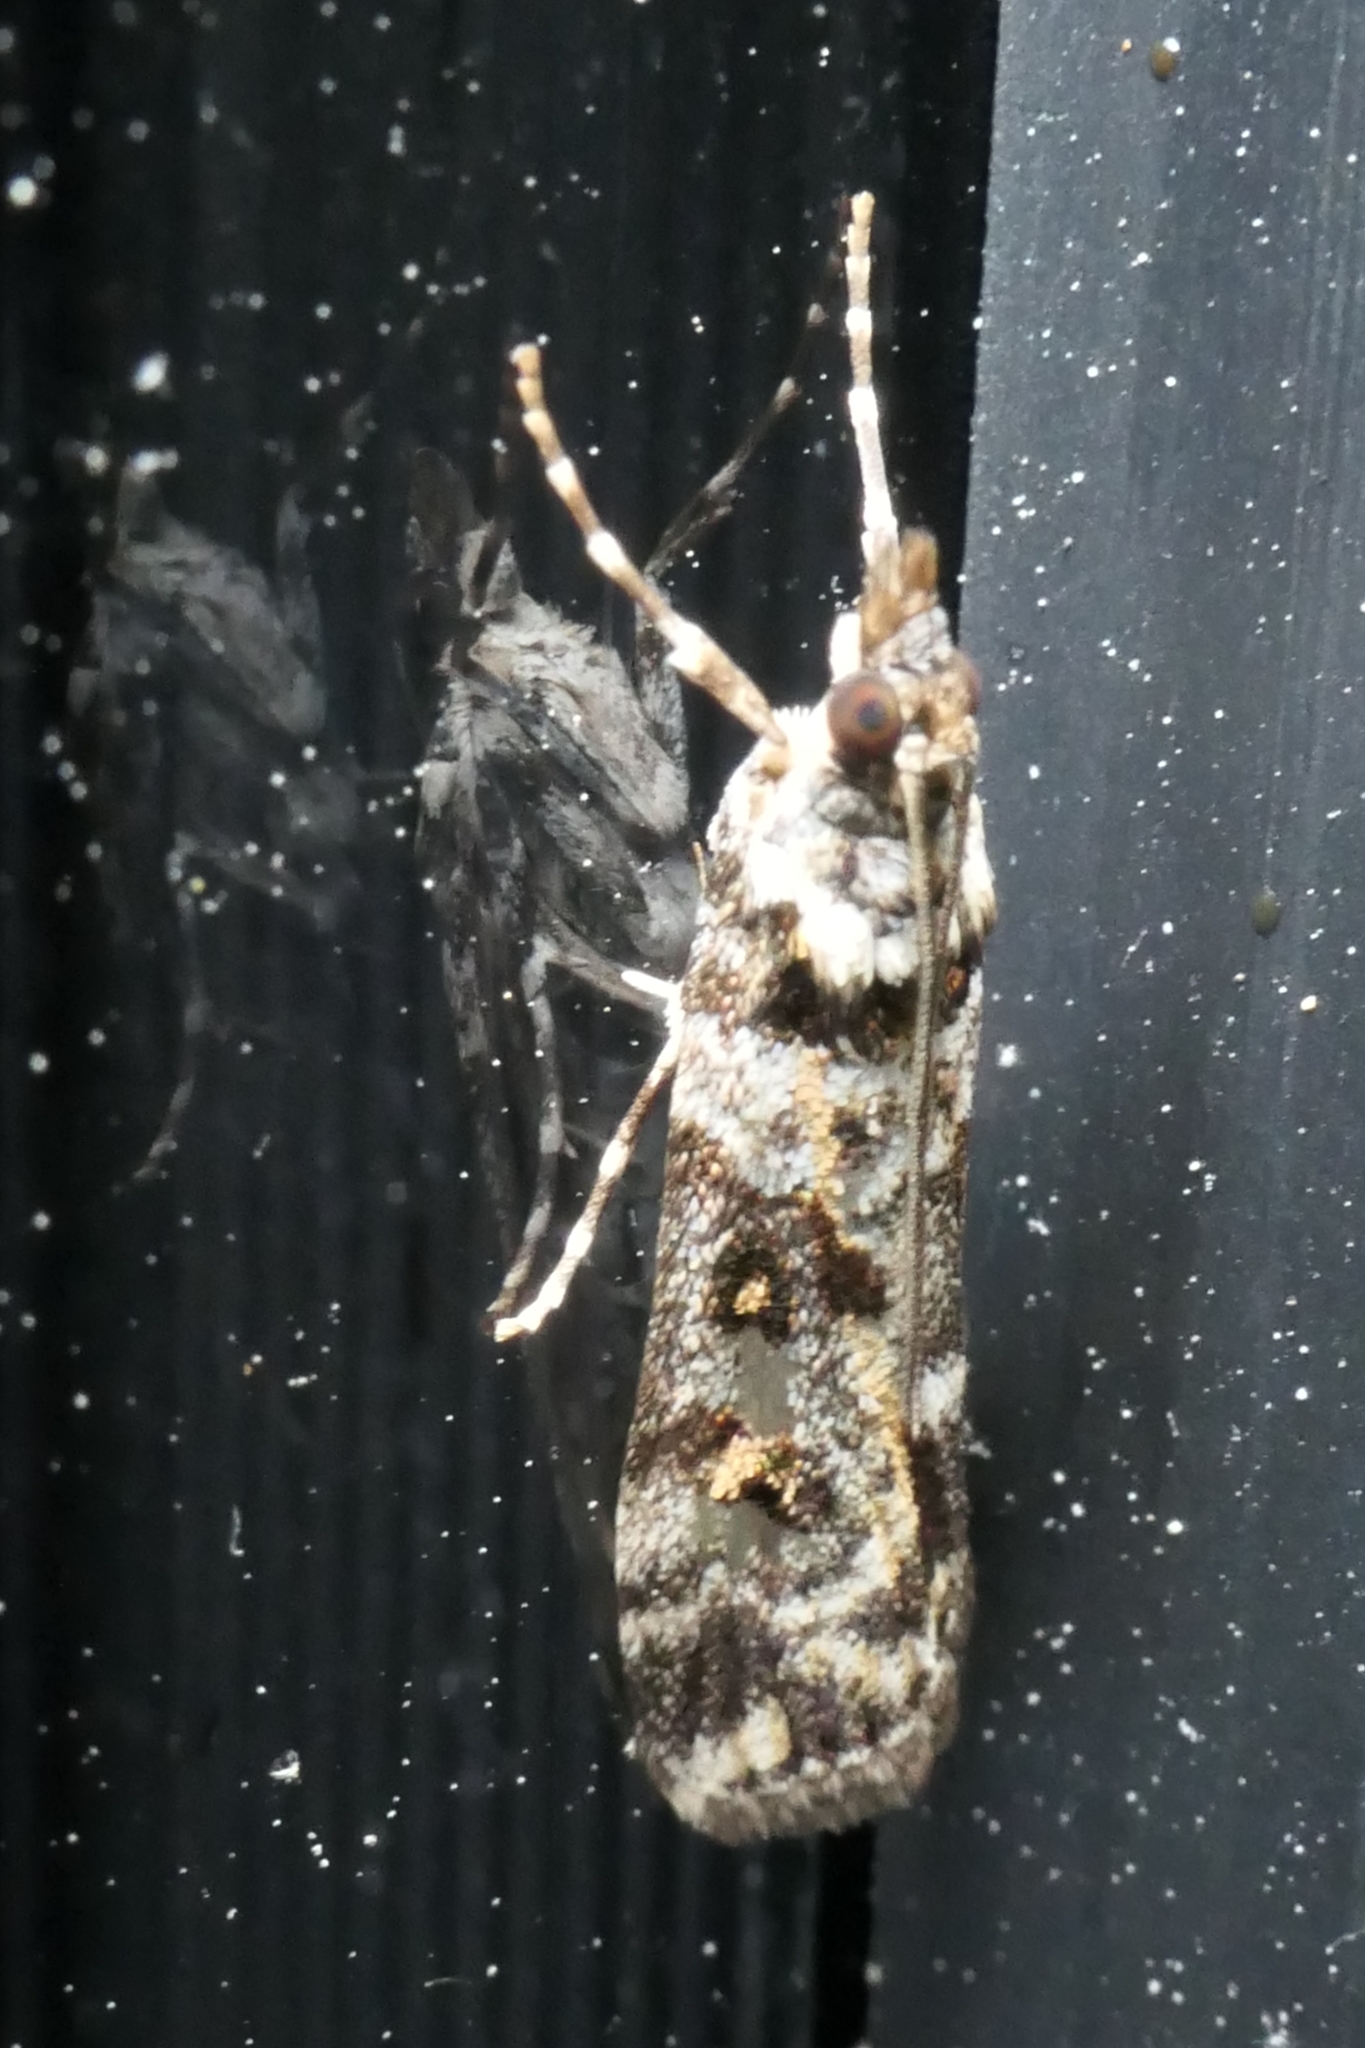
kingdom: Animalia
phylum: Arthropoda
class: Insecta
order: Lepidoptera
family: Crambidae
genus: Eudonia
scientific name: Eudonia diphtheralis
